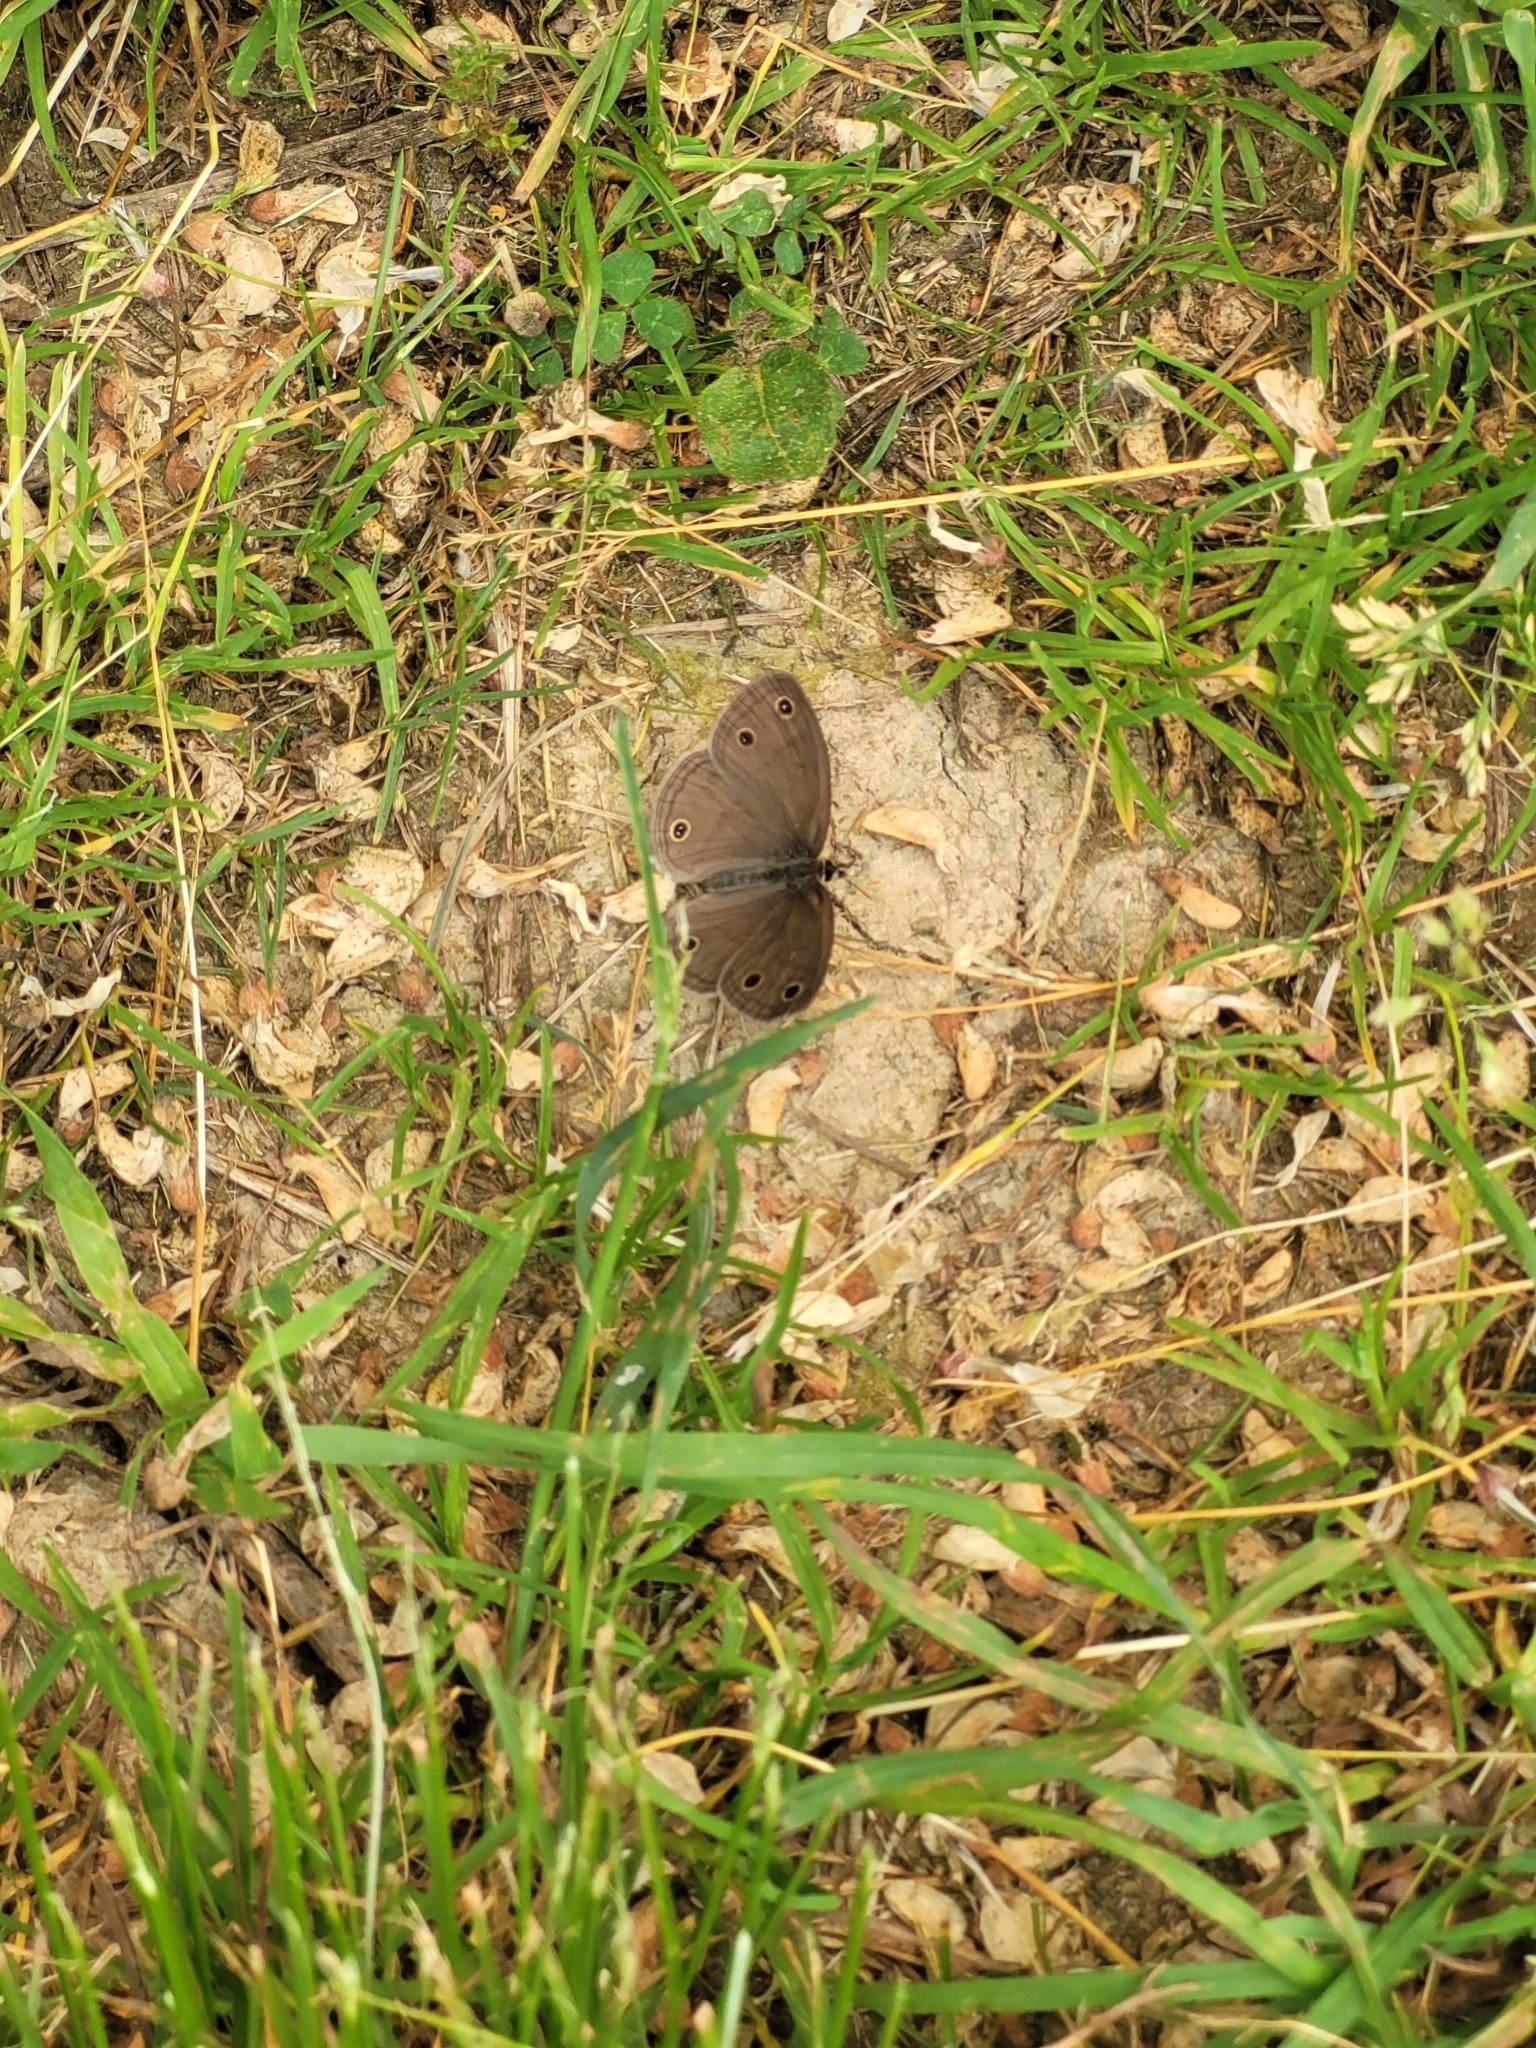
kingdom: Animalia
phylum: Arthropoda
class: Insecta
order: Lepidoptera
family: Nymphalidae
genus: Euptychia
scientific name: Euptychia cymela
